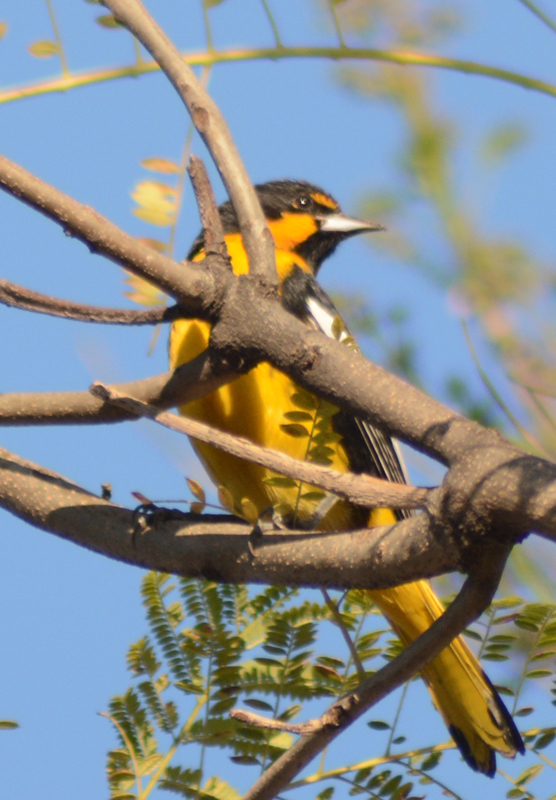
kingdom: Animalia
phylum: Chordata
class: Aves
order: Passeriformes
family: Icteridae
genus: Icterus
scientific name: Icterus abeillei
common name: Black-backed oriole
